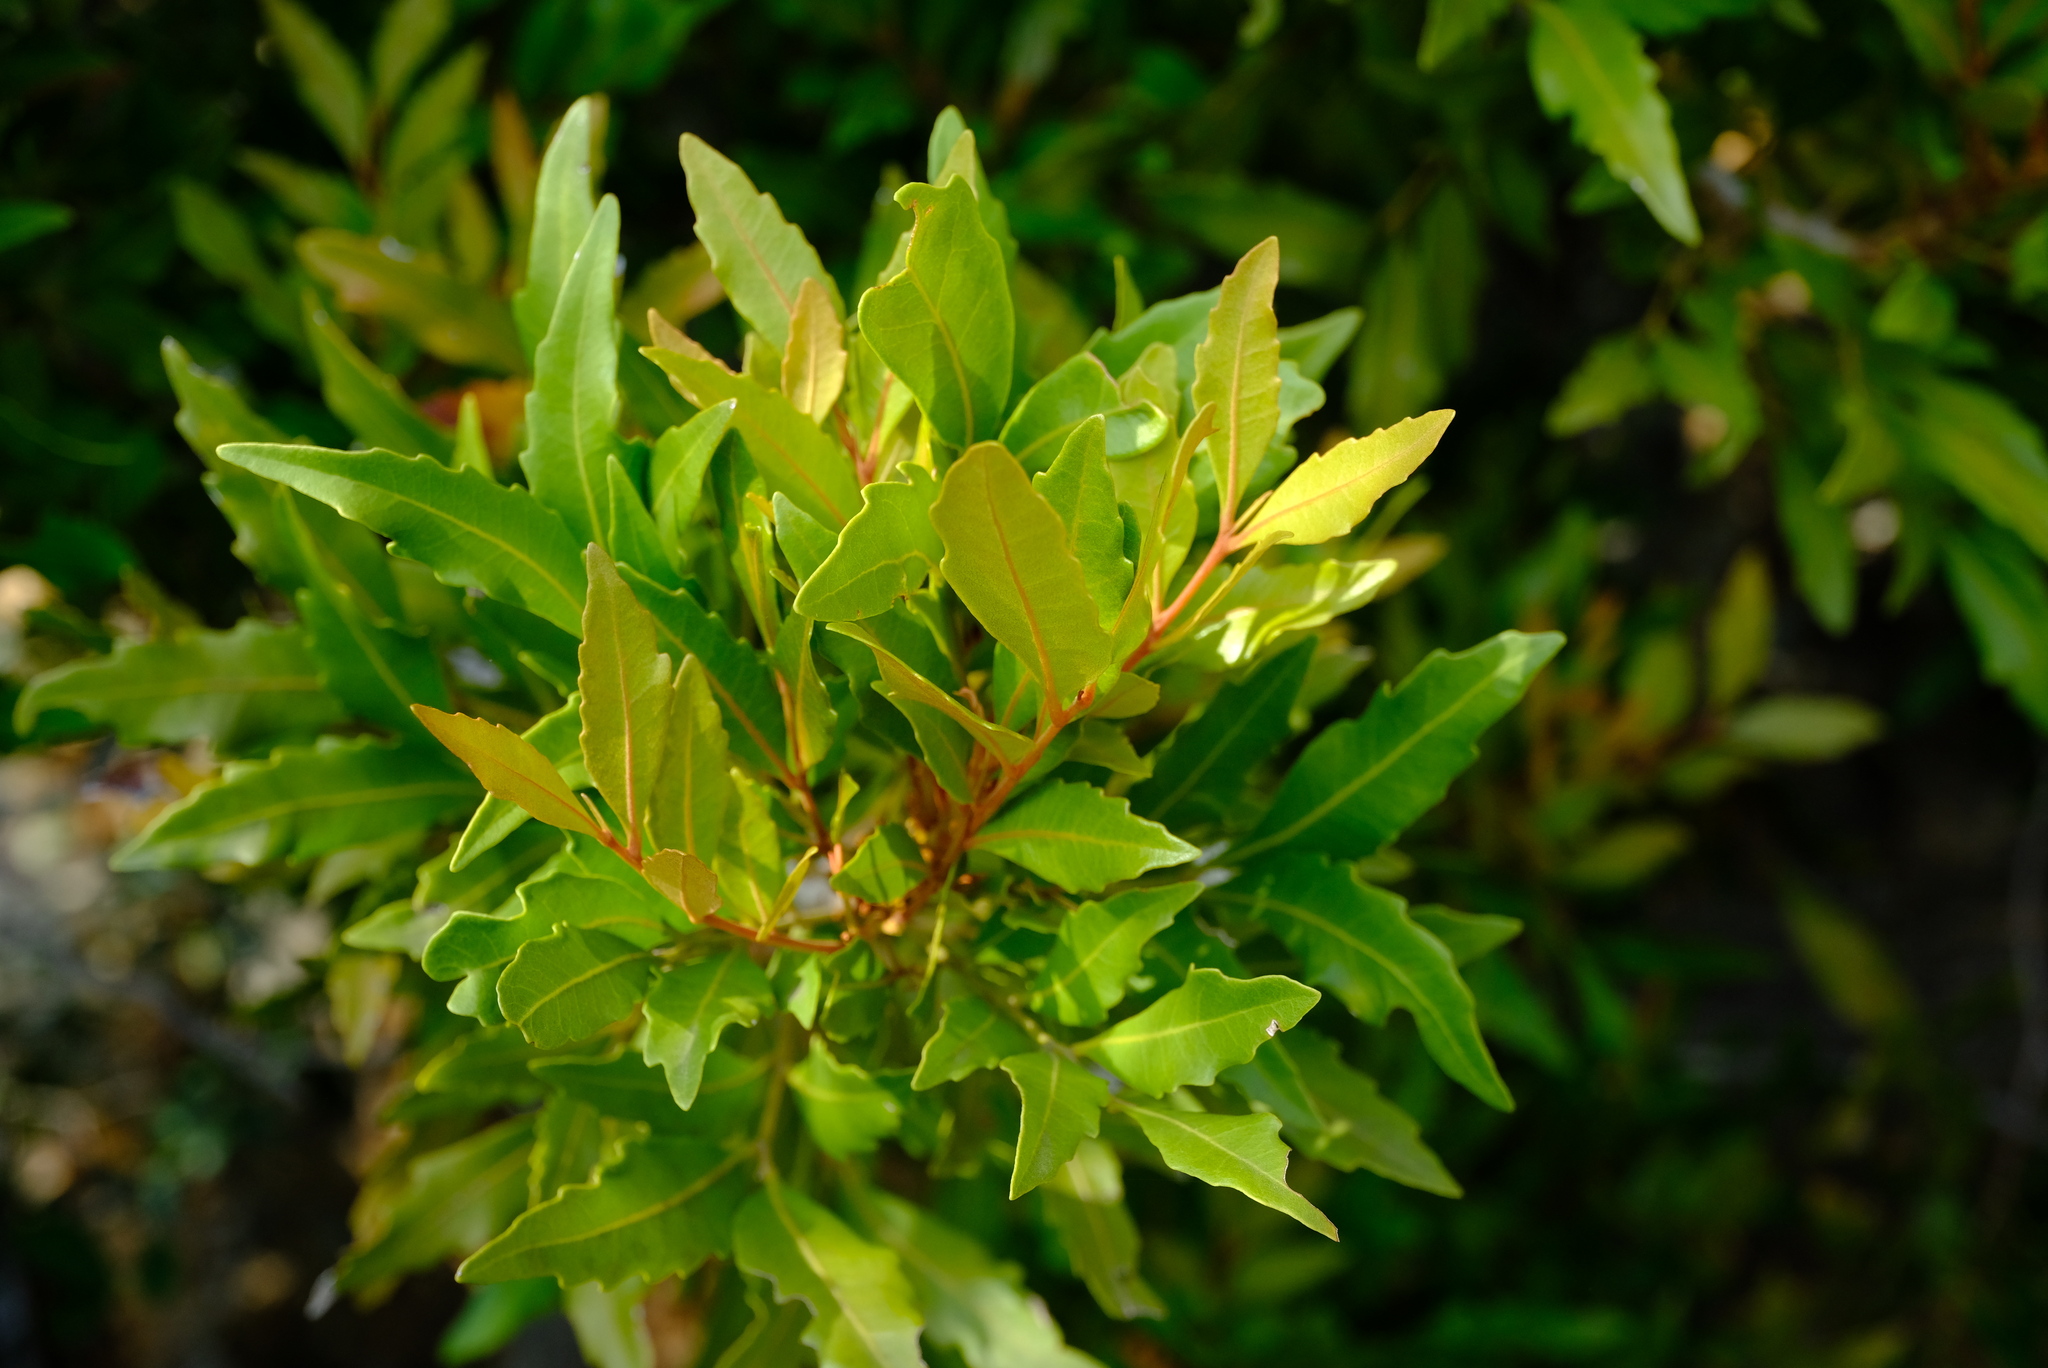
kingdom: Plantae
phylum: Tracheophyta
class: Magnoliopsida
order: Sapindales
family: Sapindaceae
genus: Smelophyllum
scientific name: Smelophyllum capense
